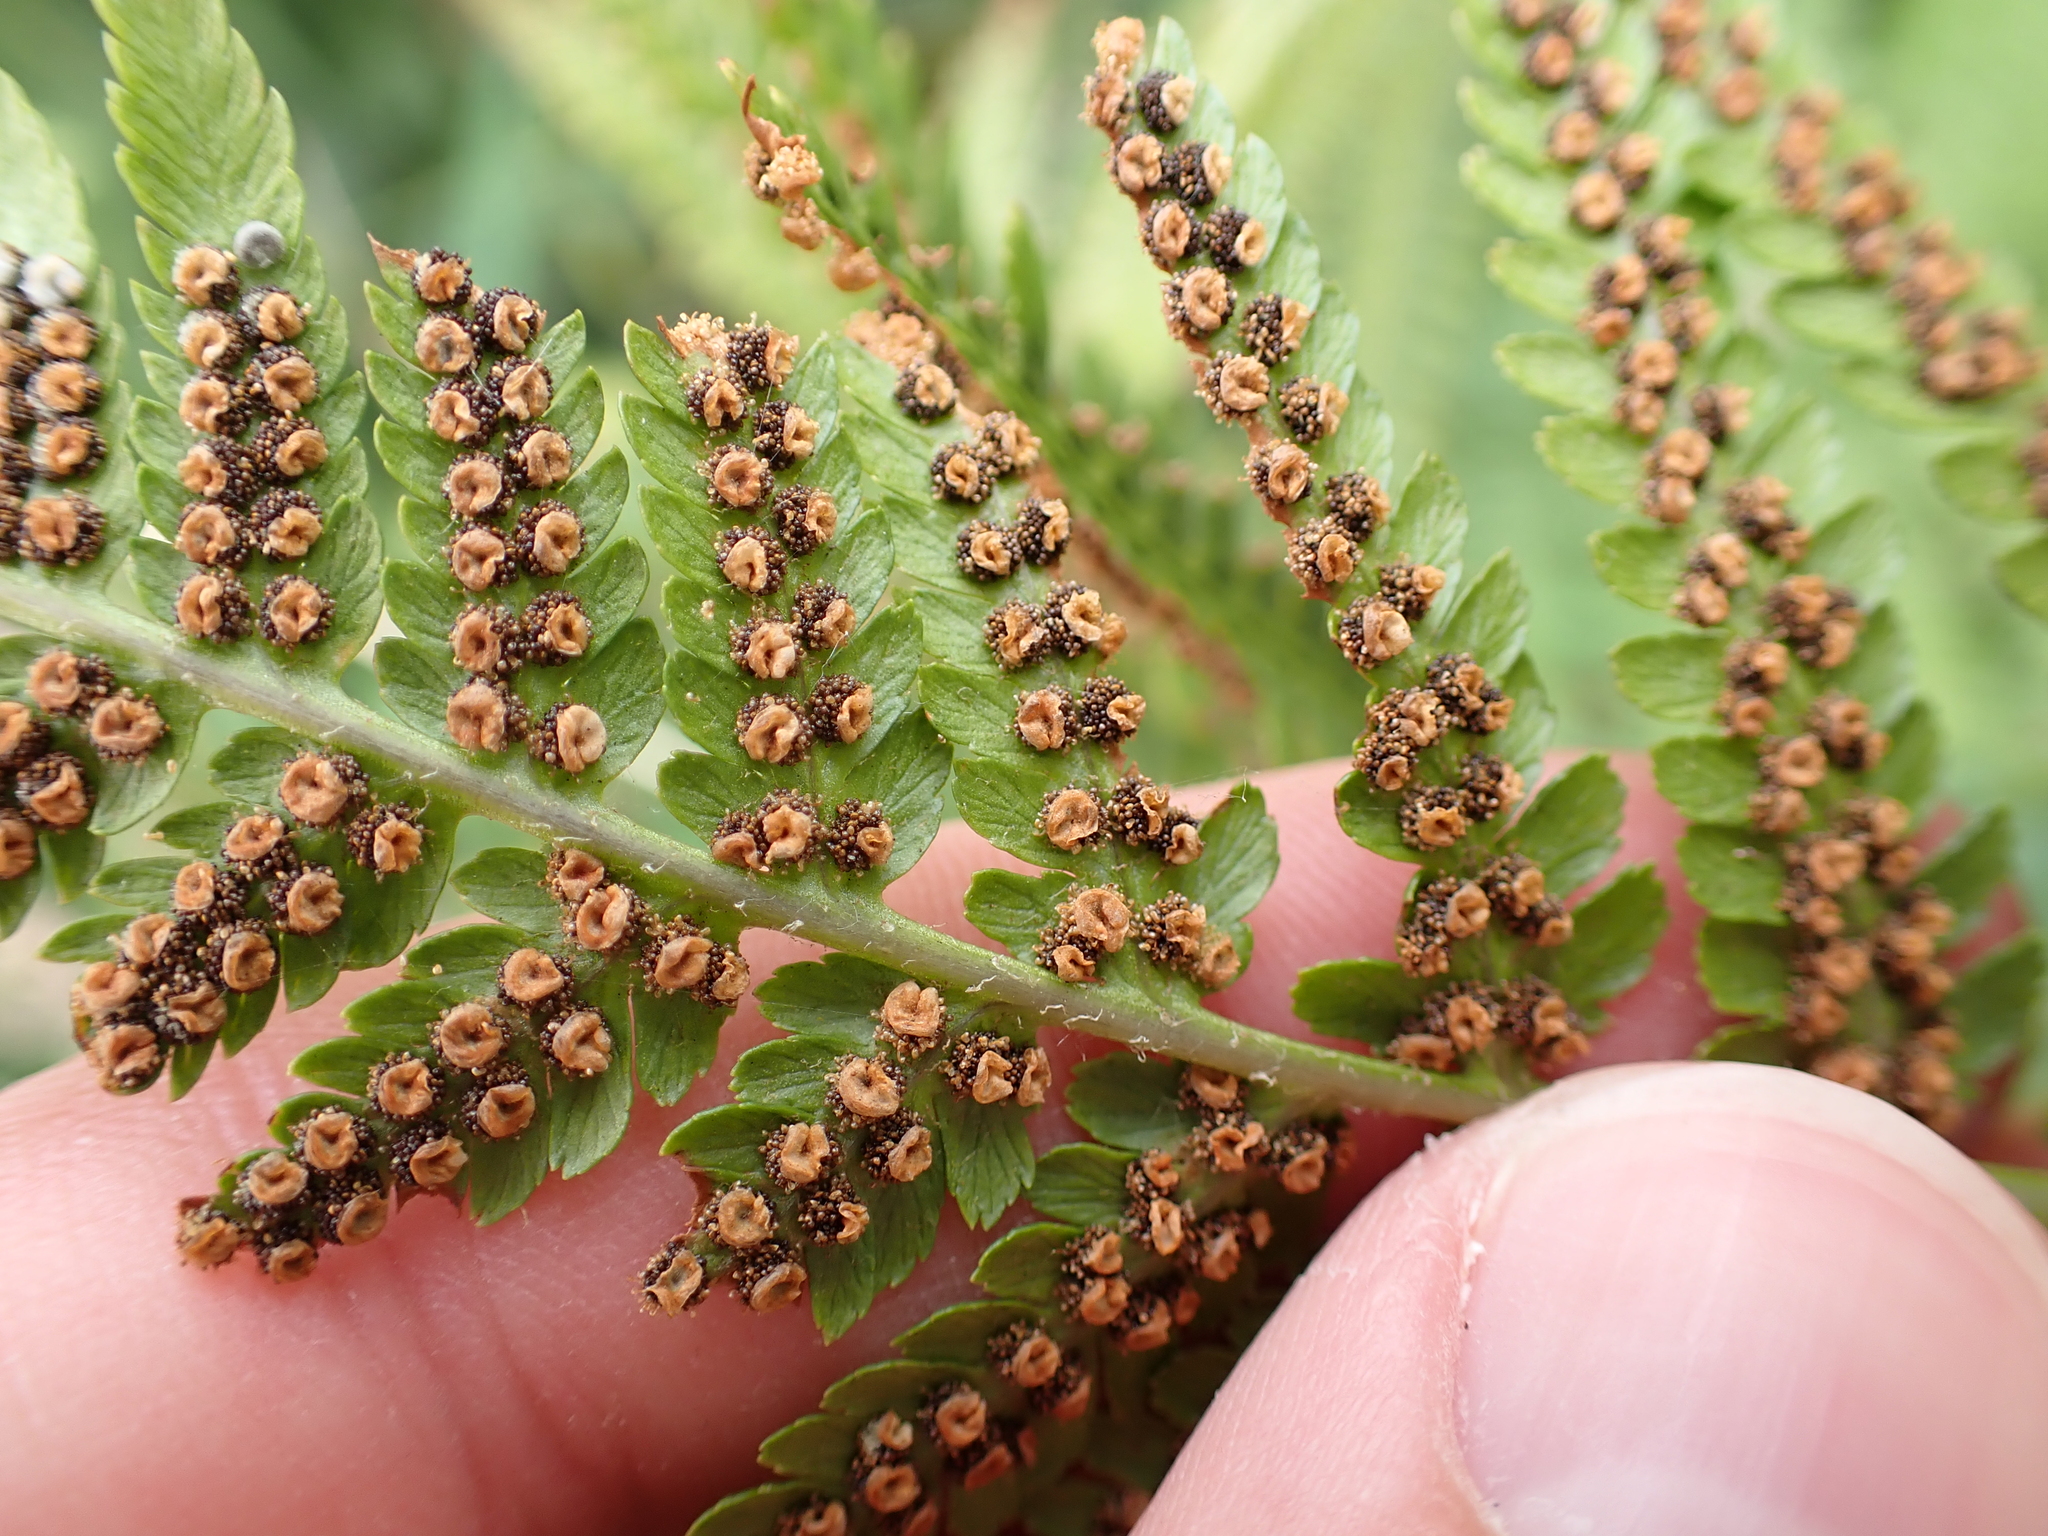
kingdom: Plantae
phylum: Tracheophyta
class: Polypodiopsida
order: Polypodiales
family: Dryopteridaceae
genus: Dryopteris
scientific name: Dryopteris filix-mas
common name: Male fern
